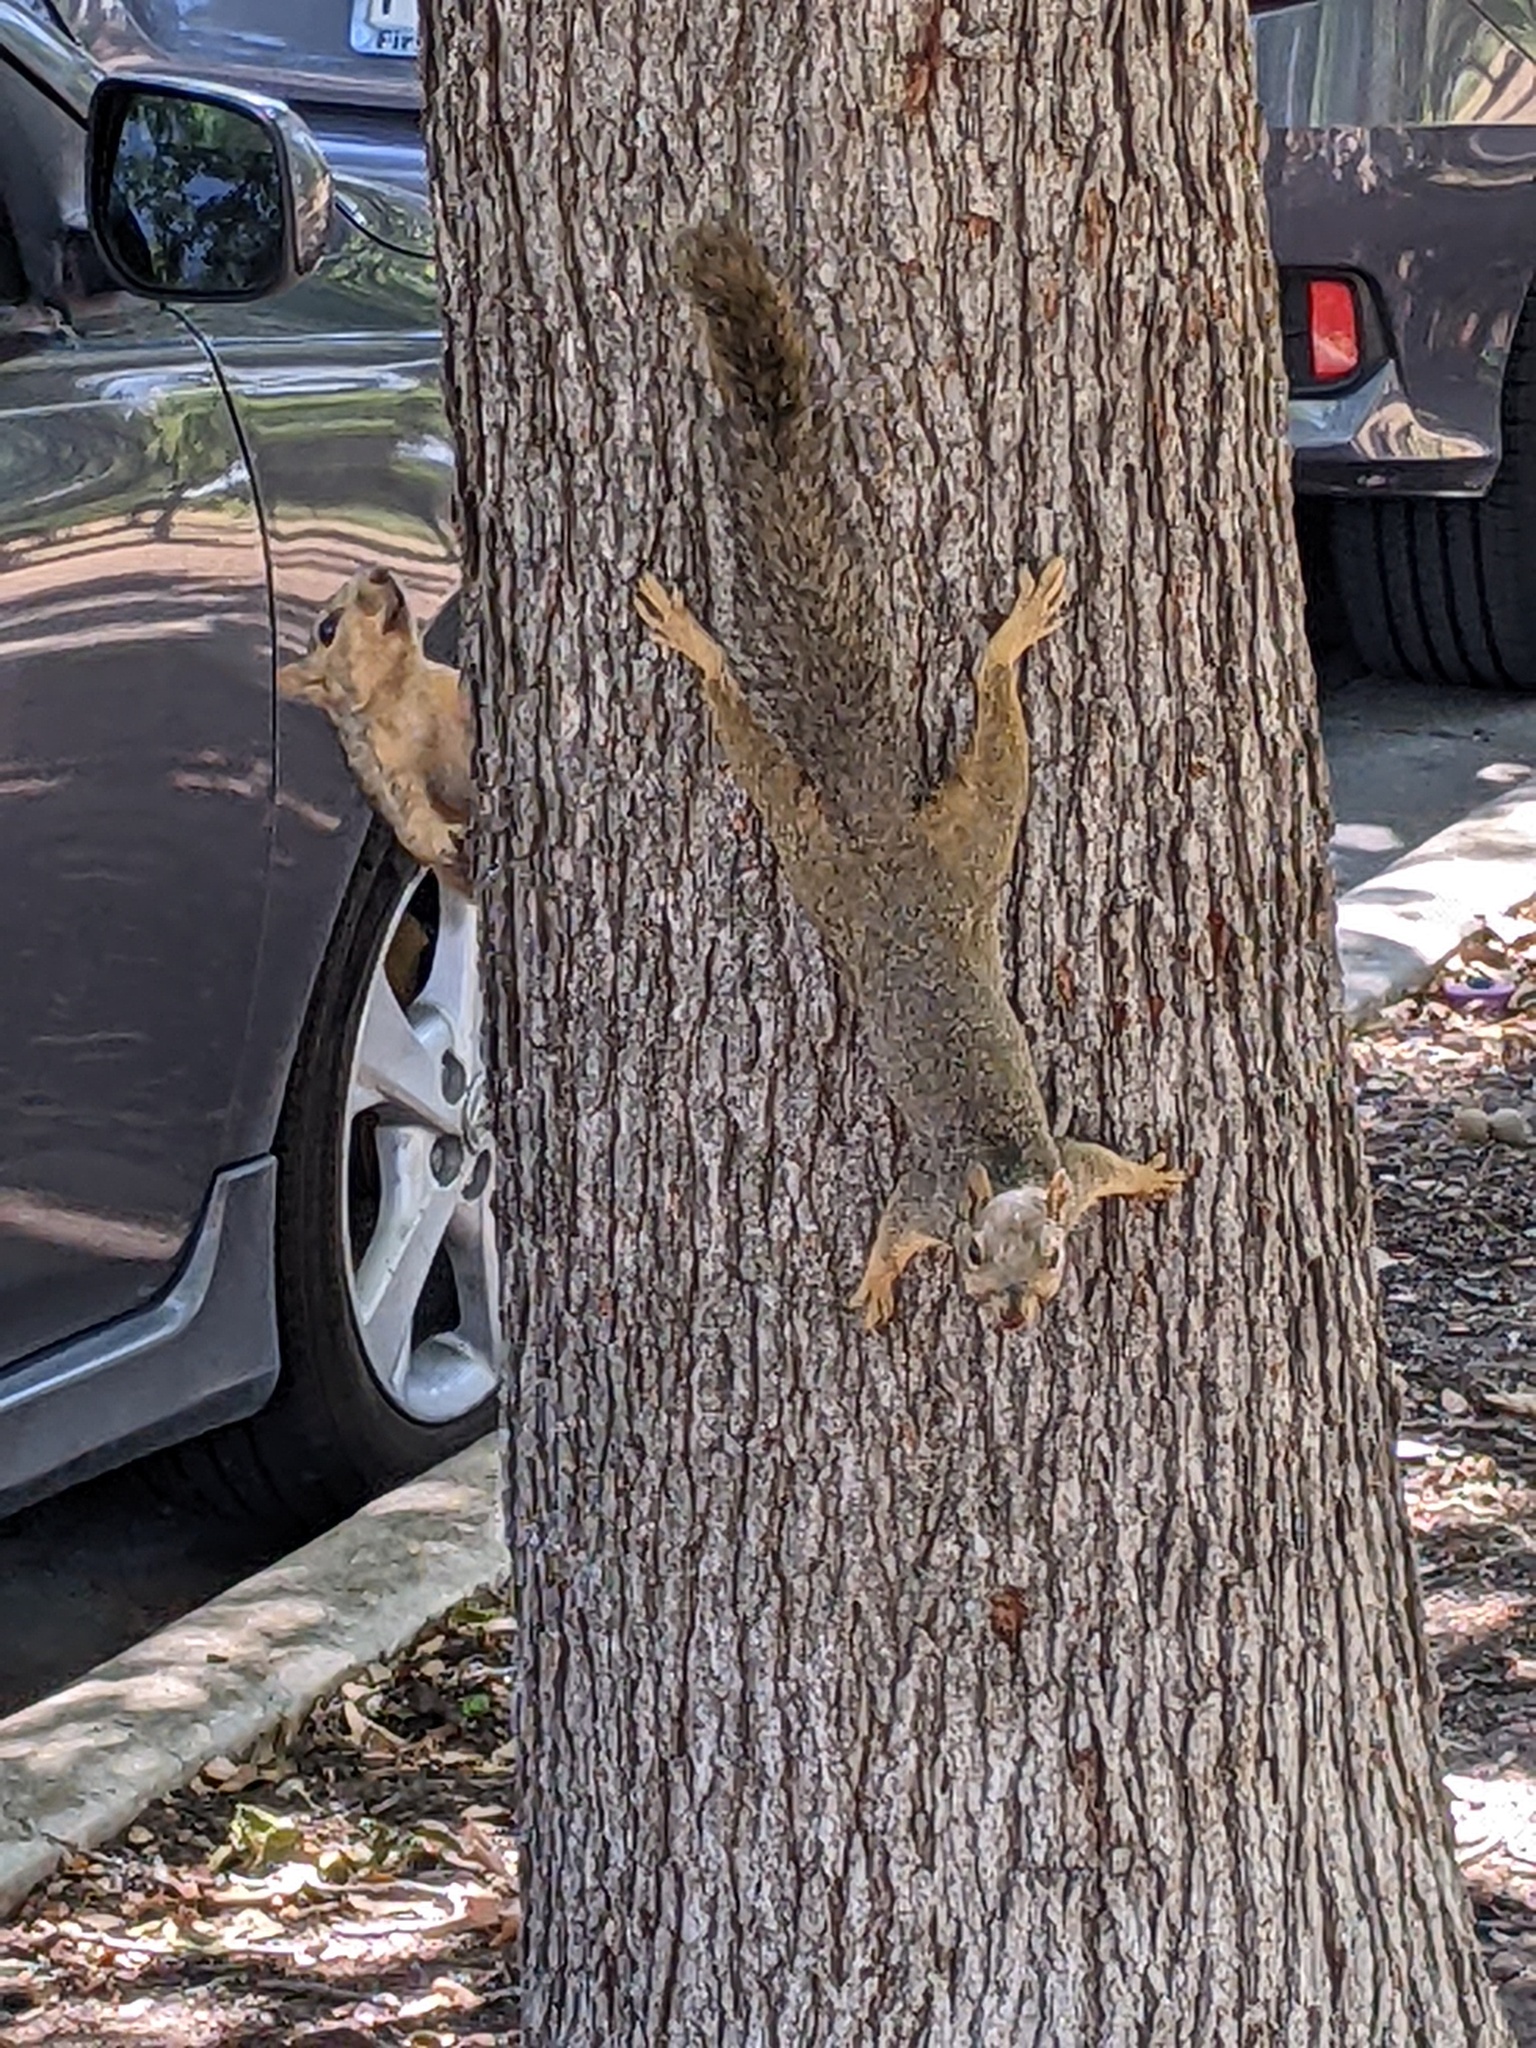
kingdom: Animalia
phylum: Chordata
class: Mammalia
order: Rodentia
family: Sciuridae
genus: Sciurus
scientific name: Sciurus niger
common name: Fox squirrel
